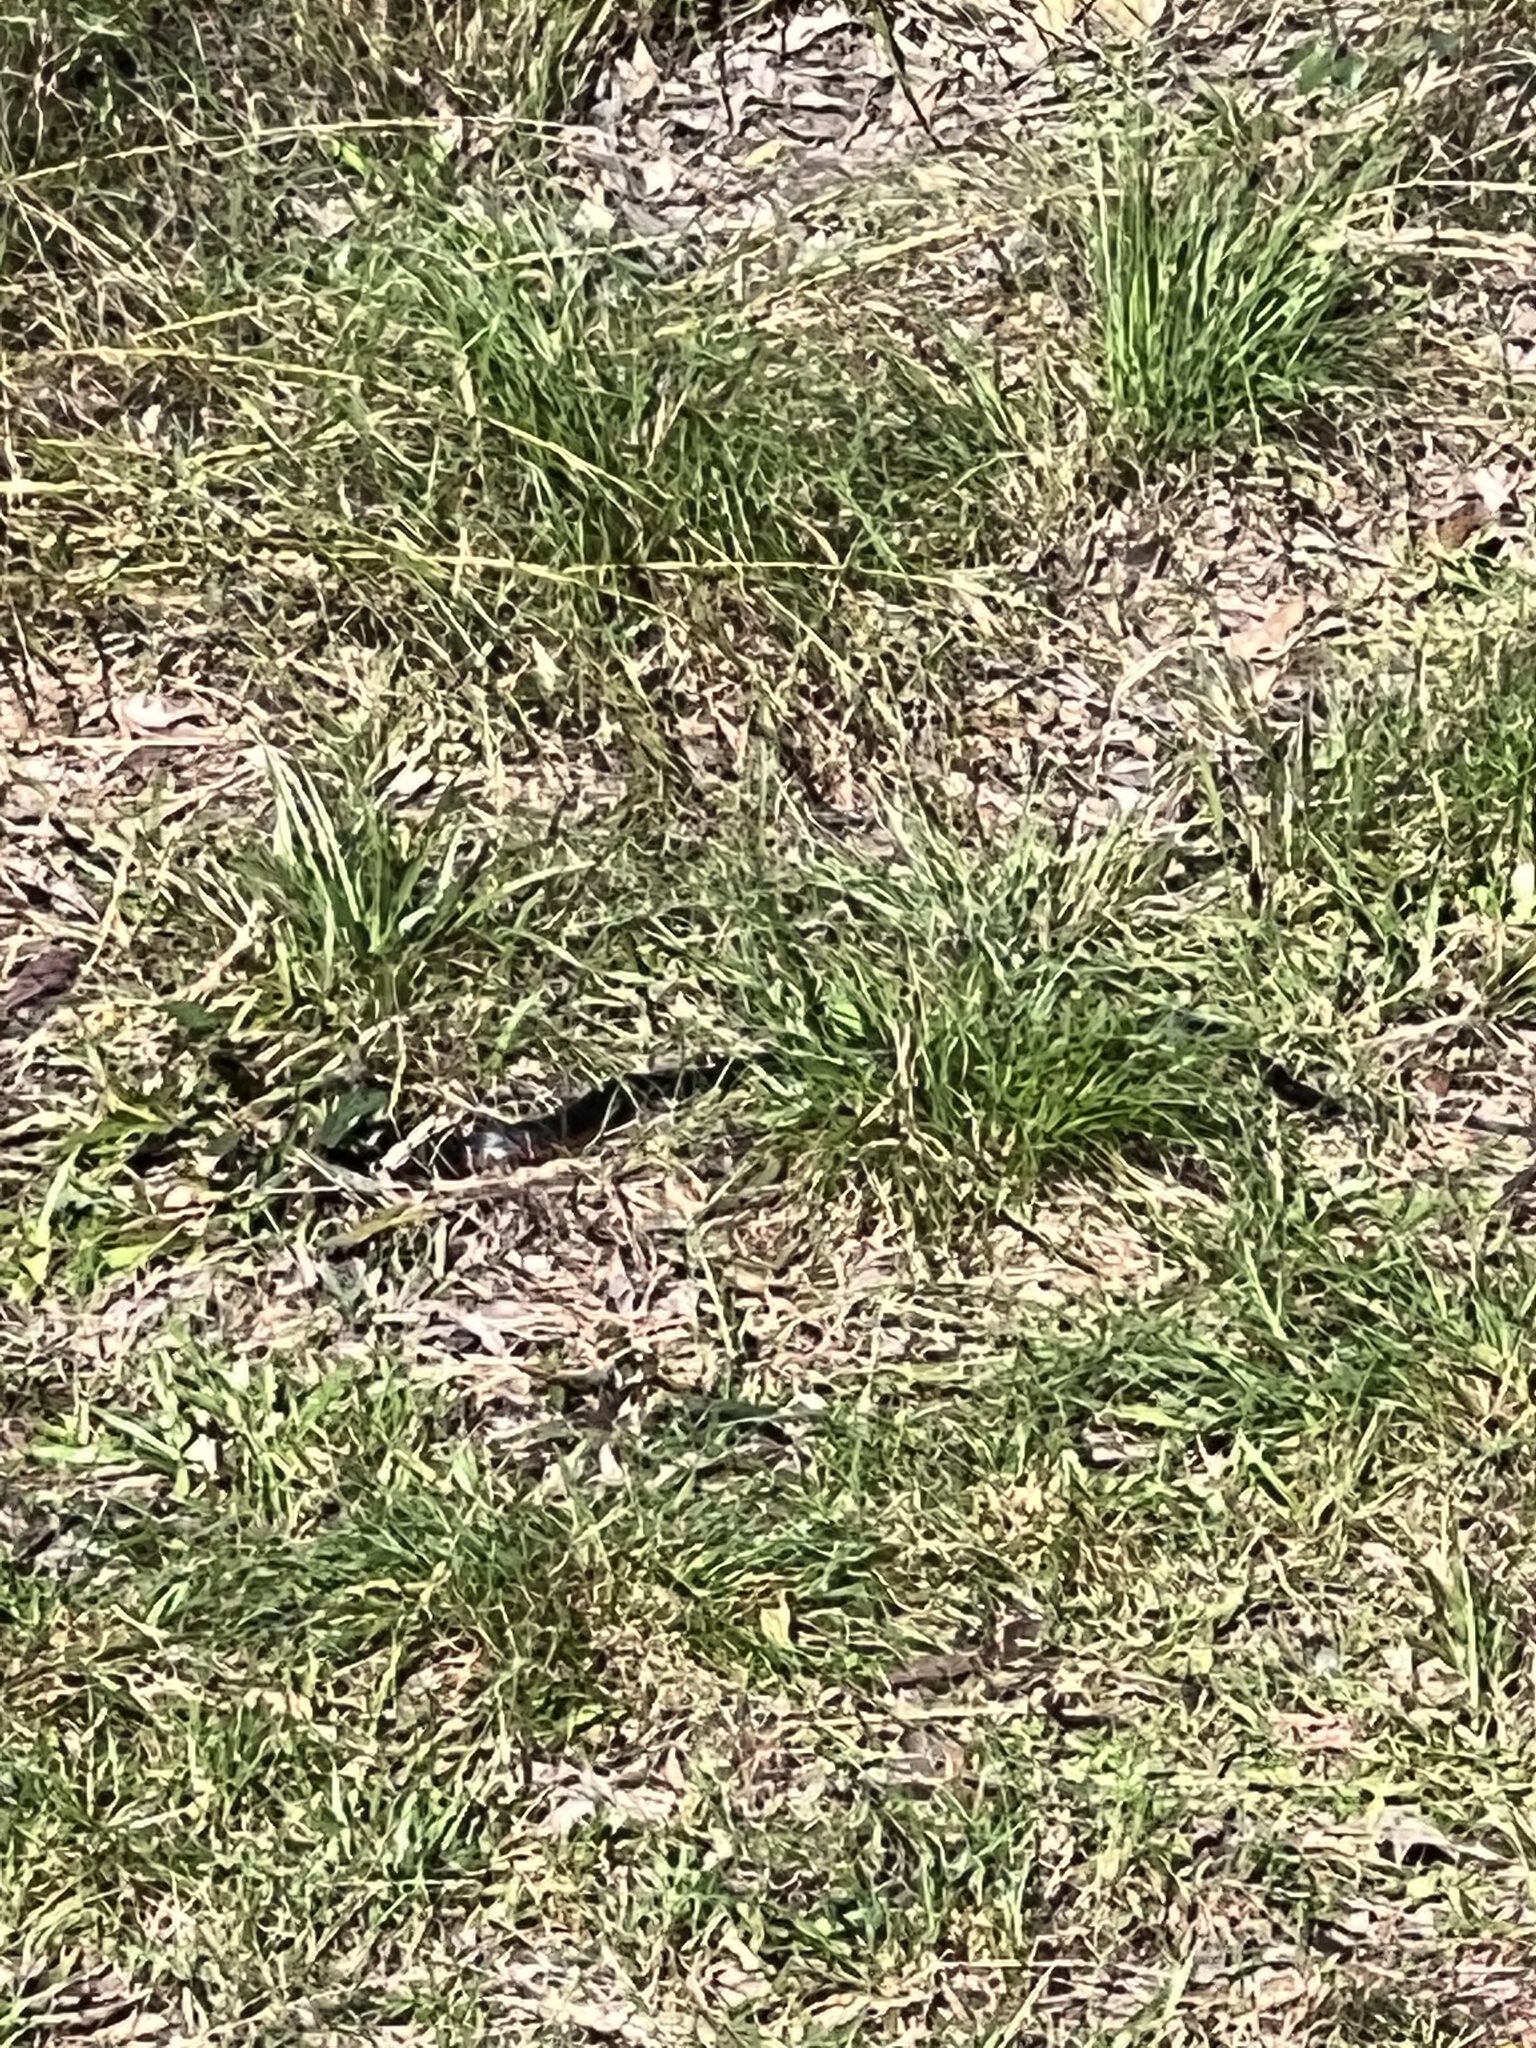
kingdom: Animalia
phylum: Chordata
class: Squamata
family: Elapidae
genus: Pseudechis
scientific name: Pseudechis porphyriacus
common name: Australian black snake
